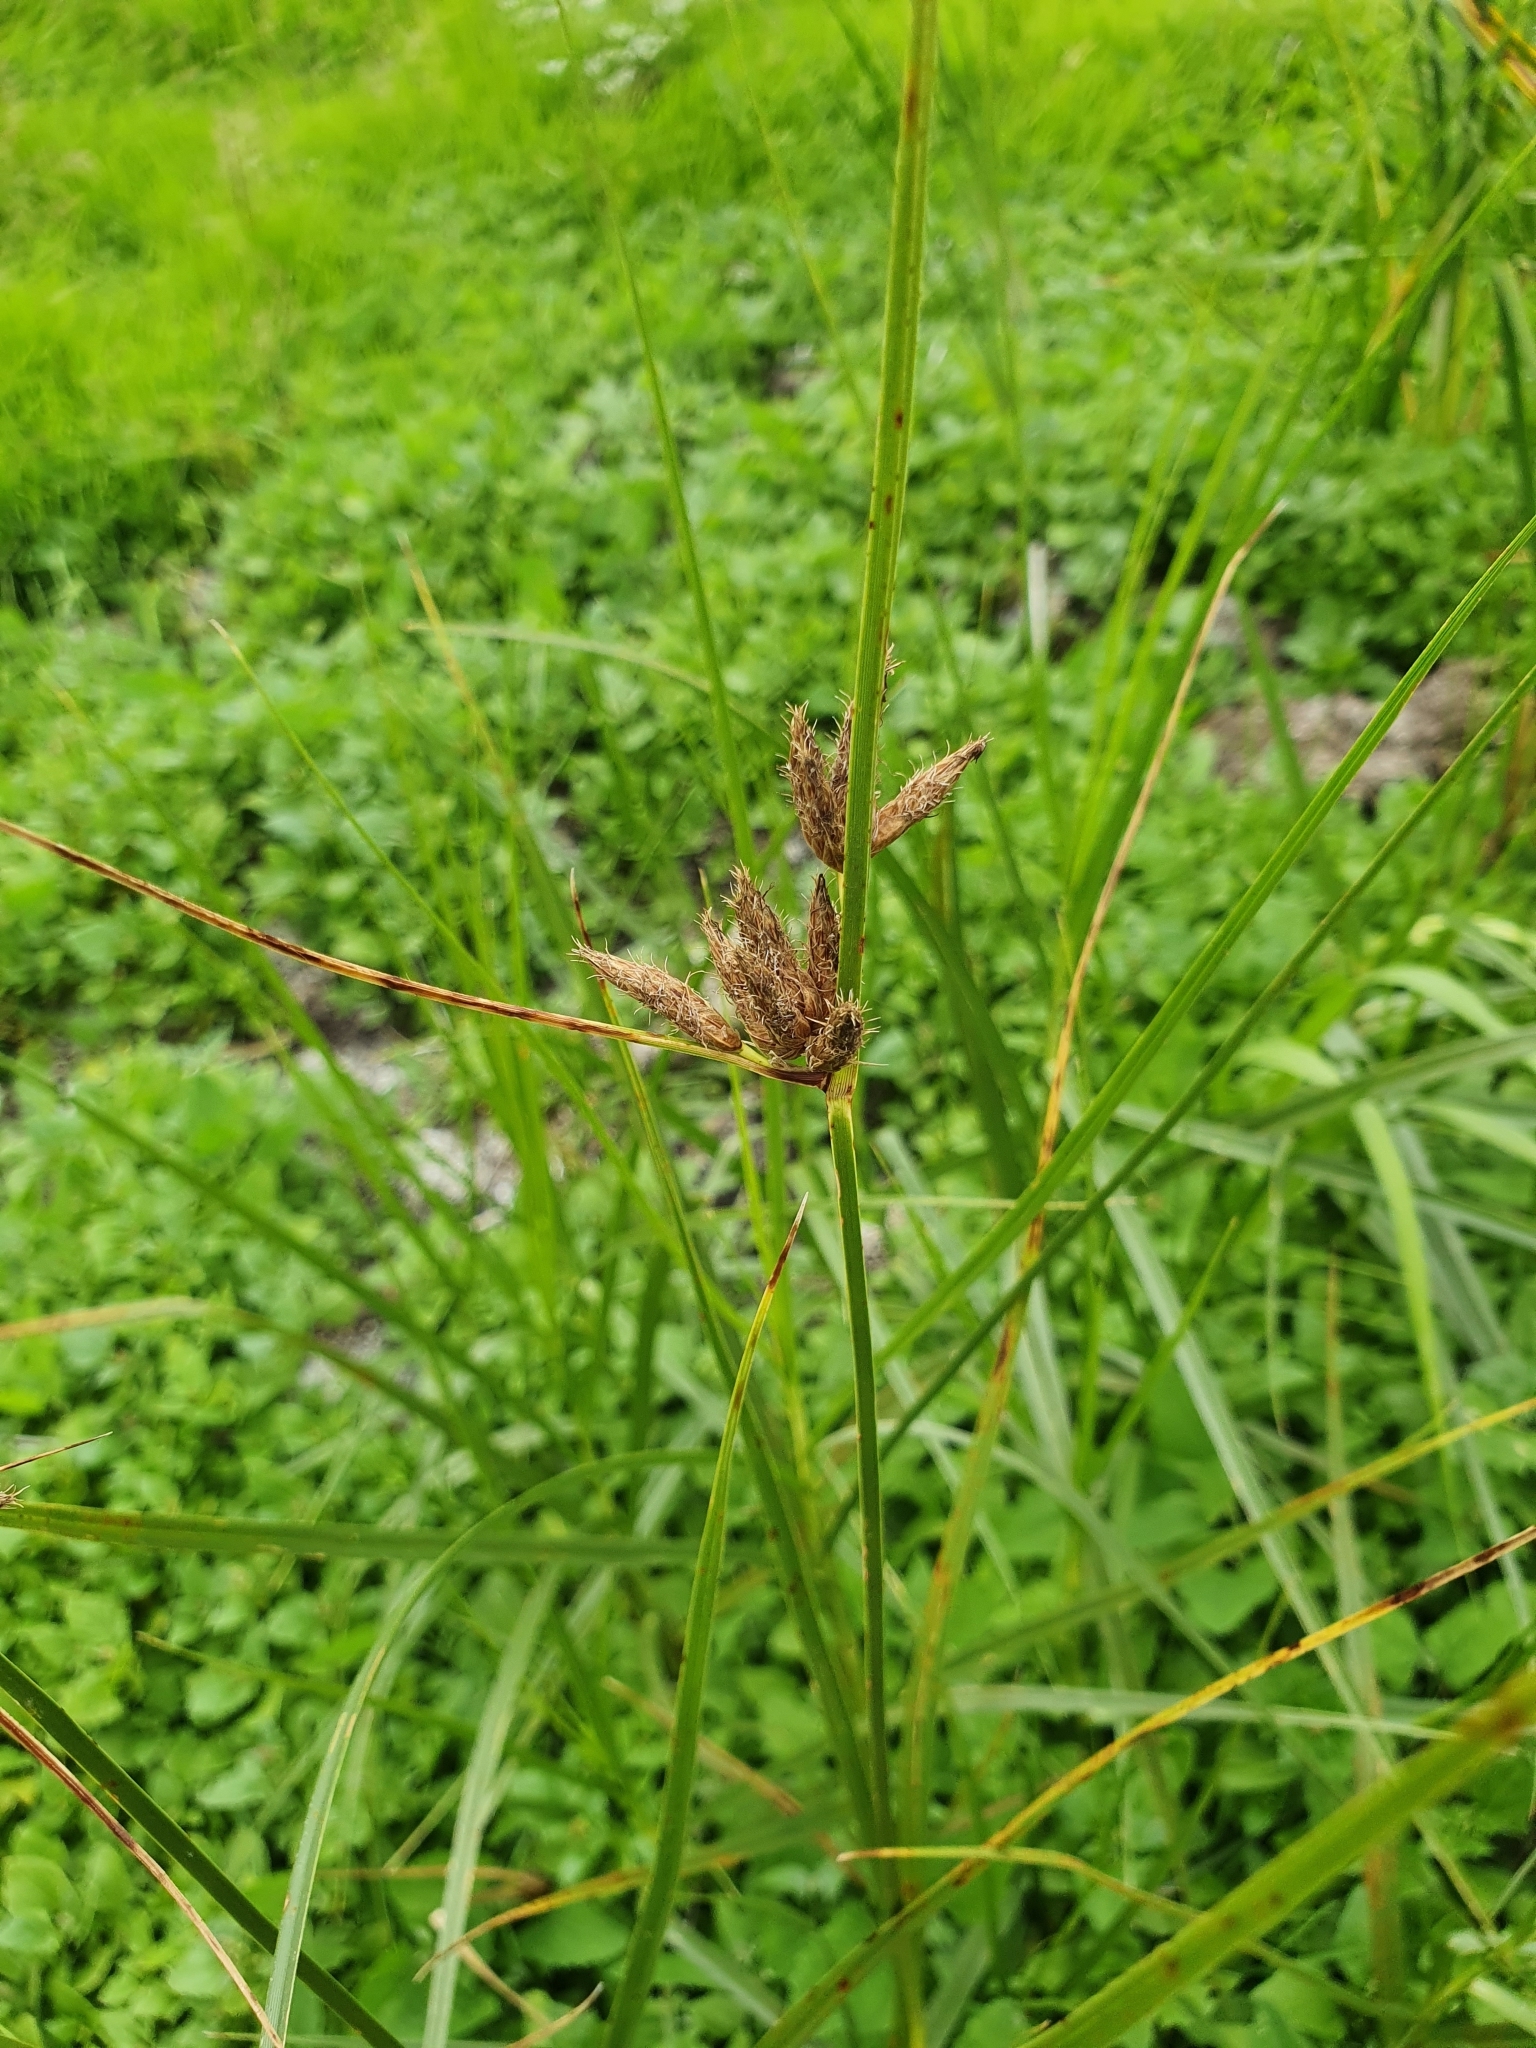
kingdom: Plantae
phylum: Tracheophyta
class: Liliopsida
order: Poales
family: Cyperaceae
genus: Bolboschoenus
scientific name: Bolboschoenus maritimus
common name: Sea club-rush
